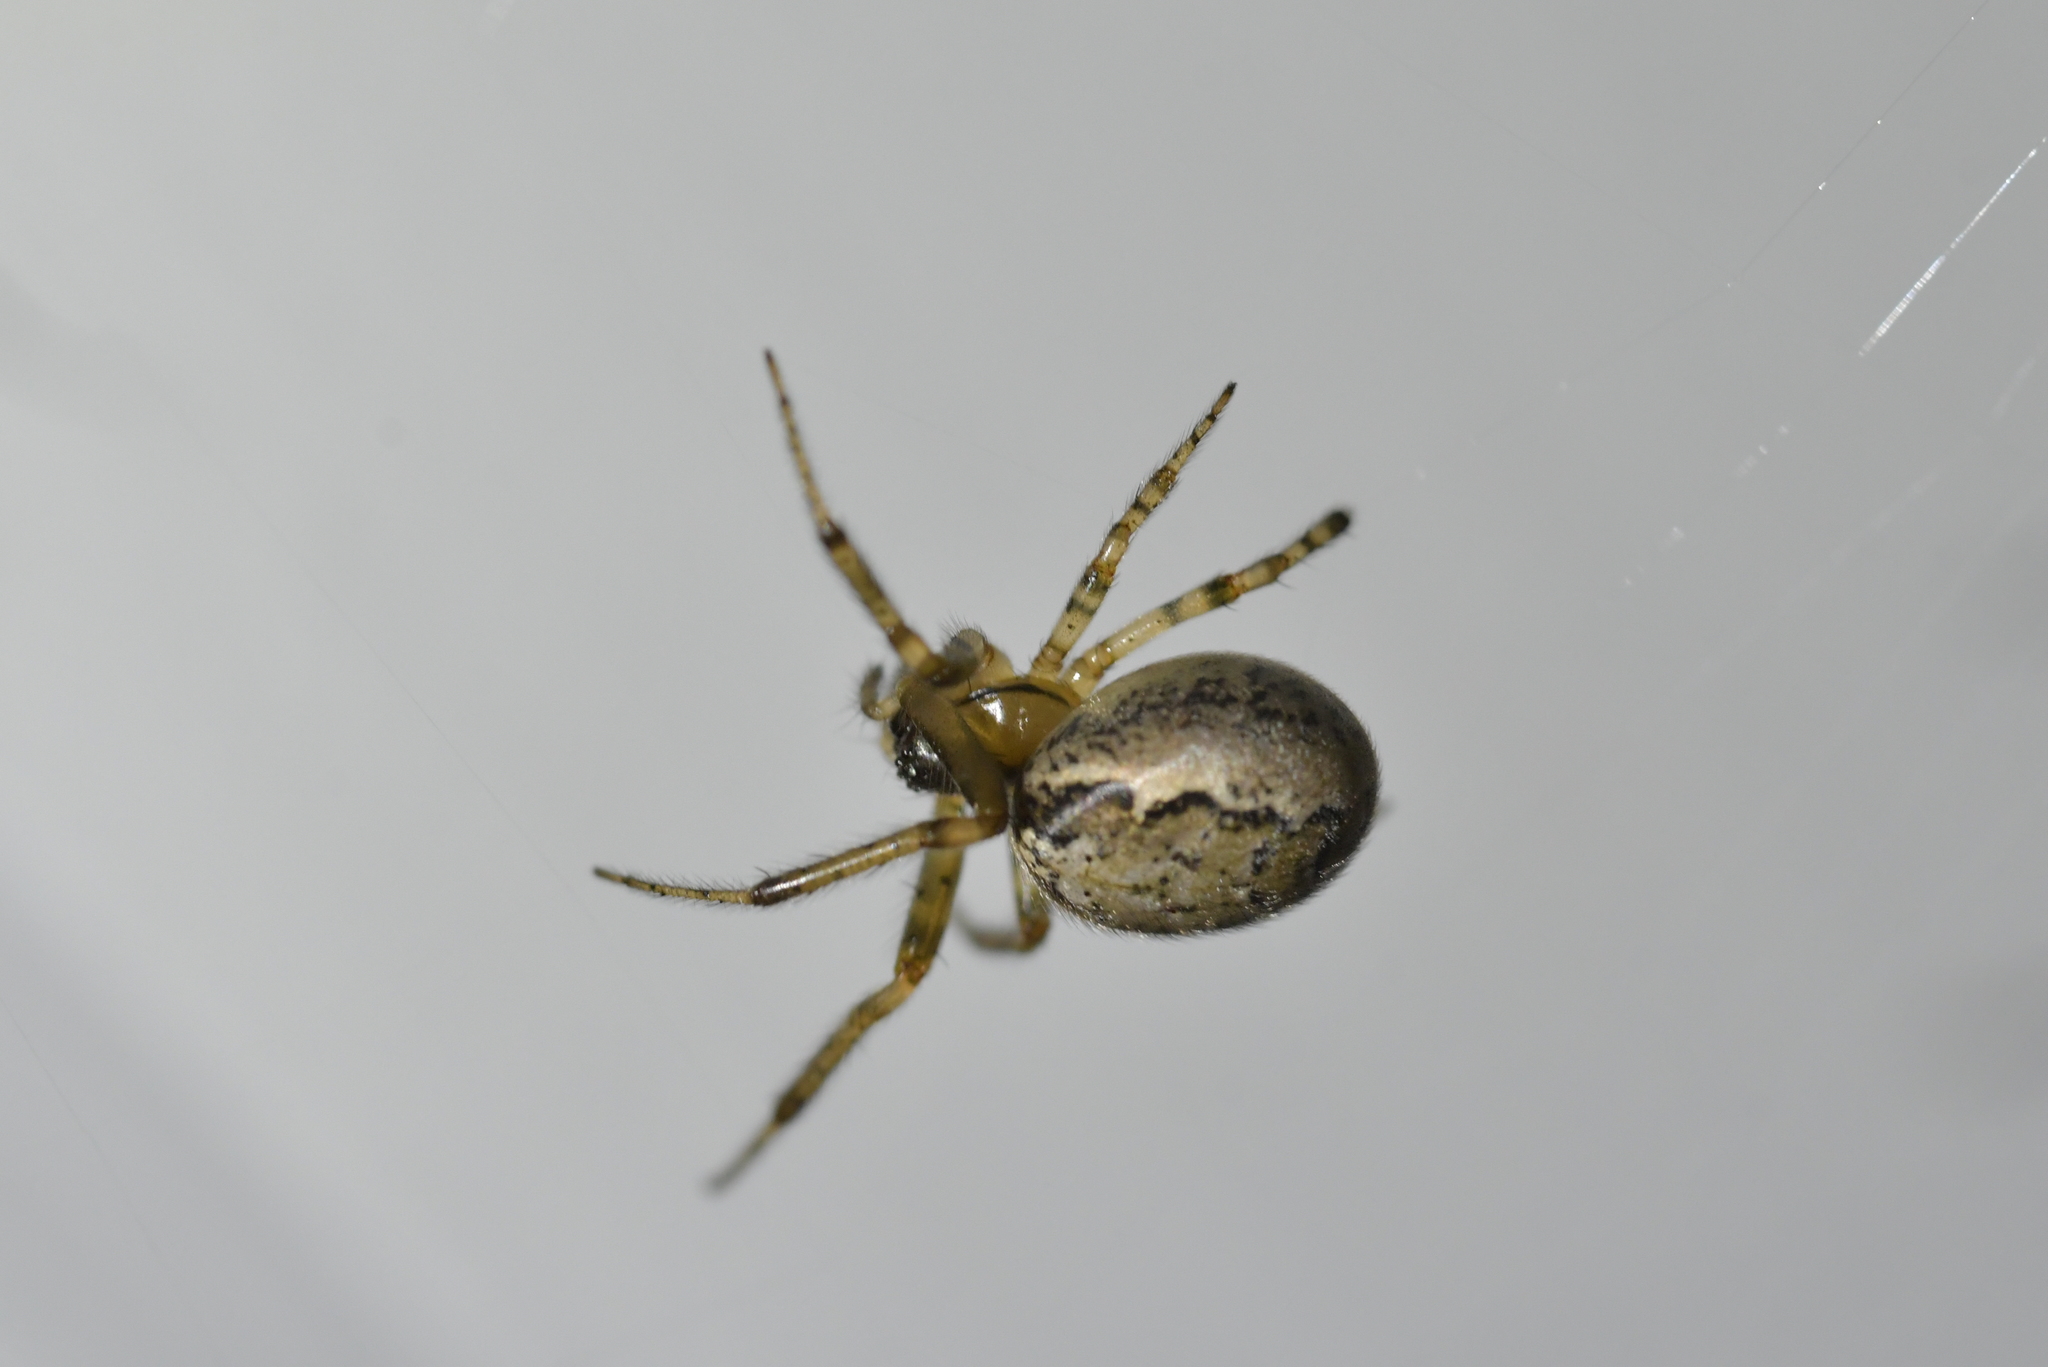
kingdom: Animalia
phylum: Arthropoda
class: Arachnida
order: Araneae
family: Araneidae
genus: Zygiella
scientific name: Zygiella x-notata
